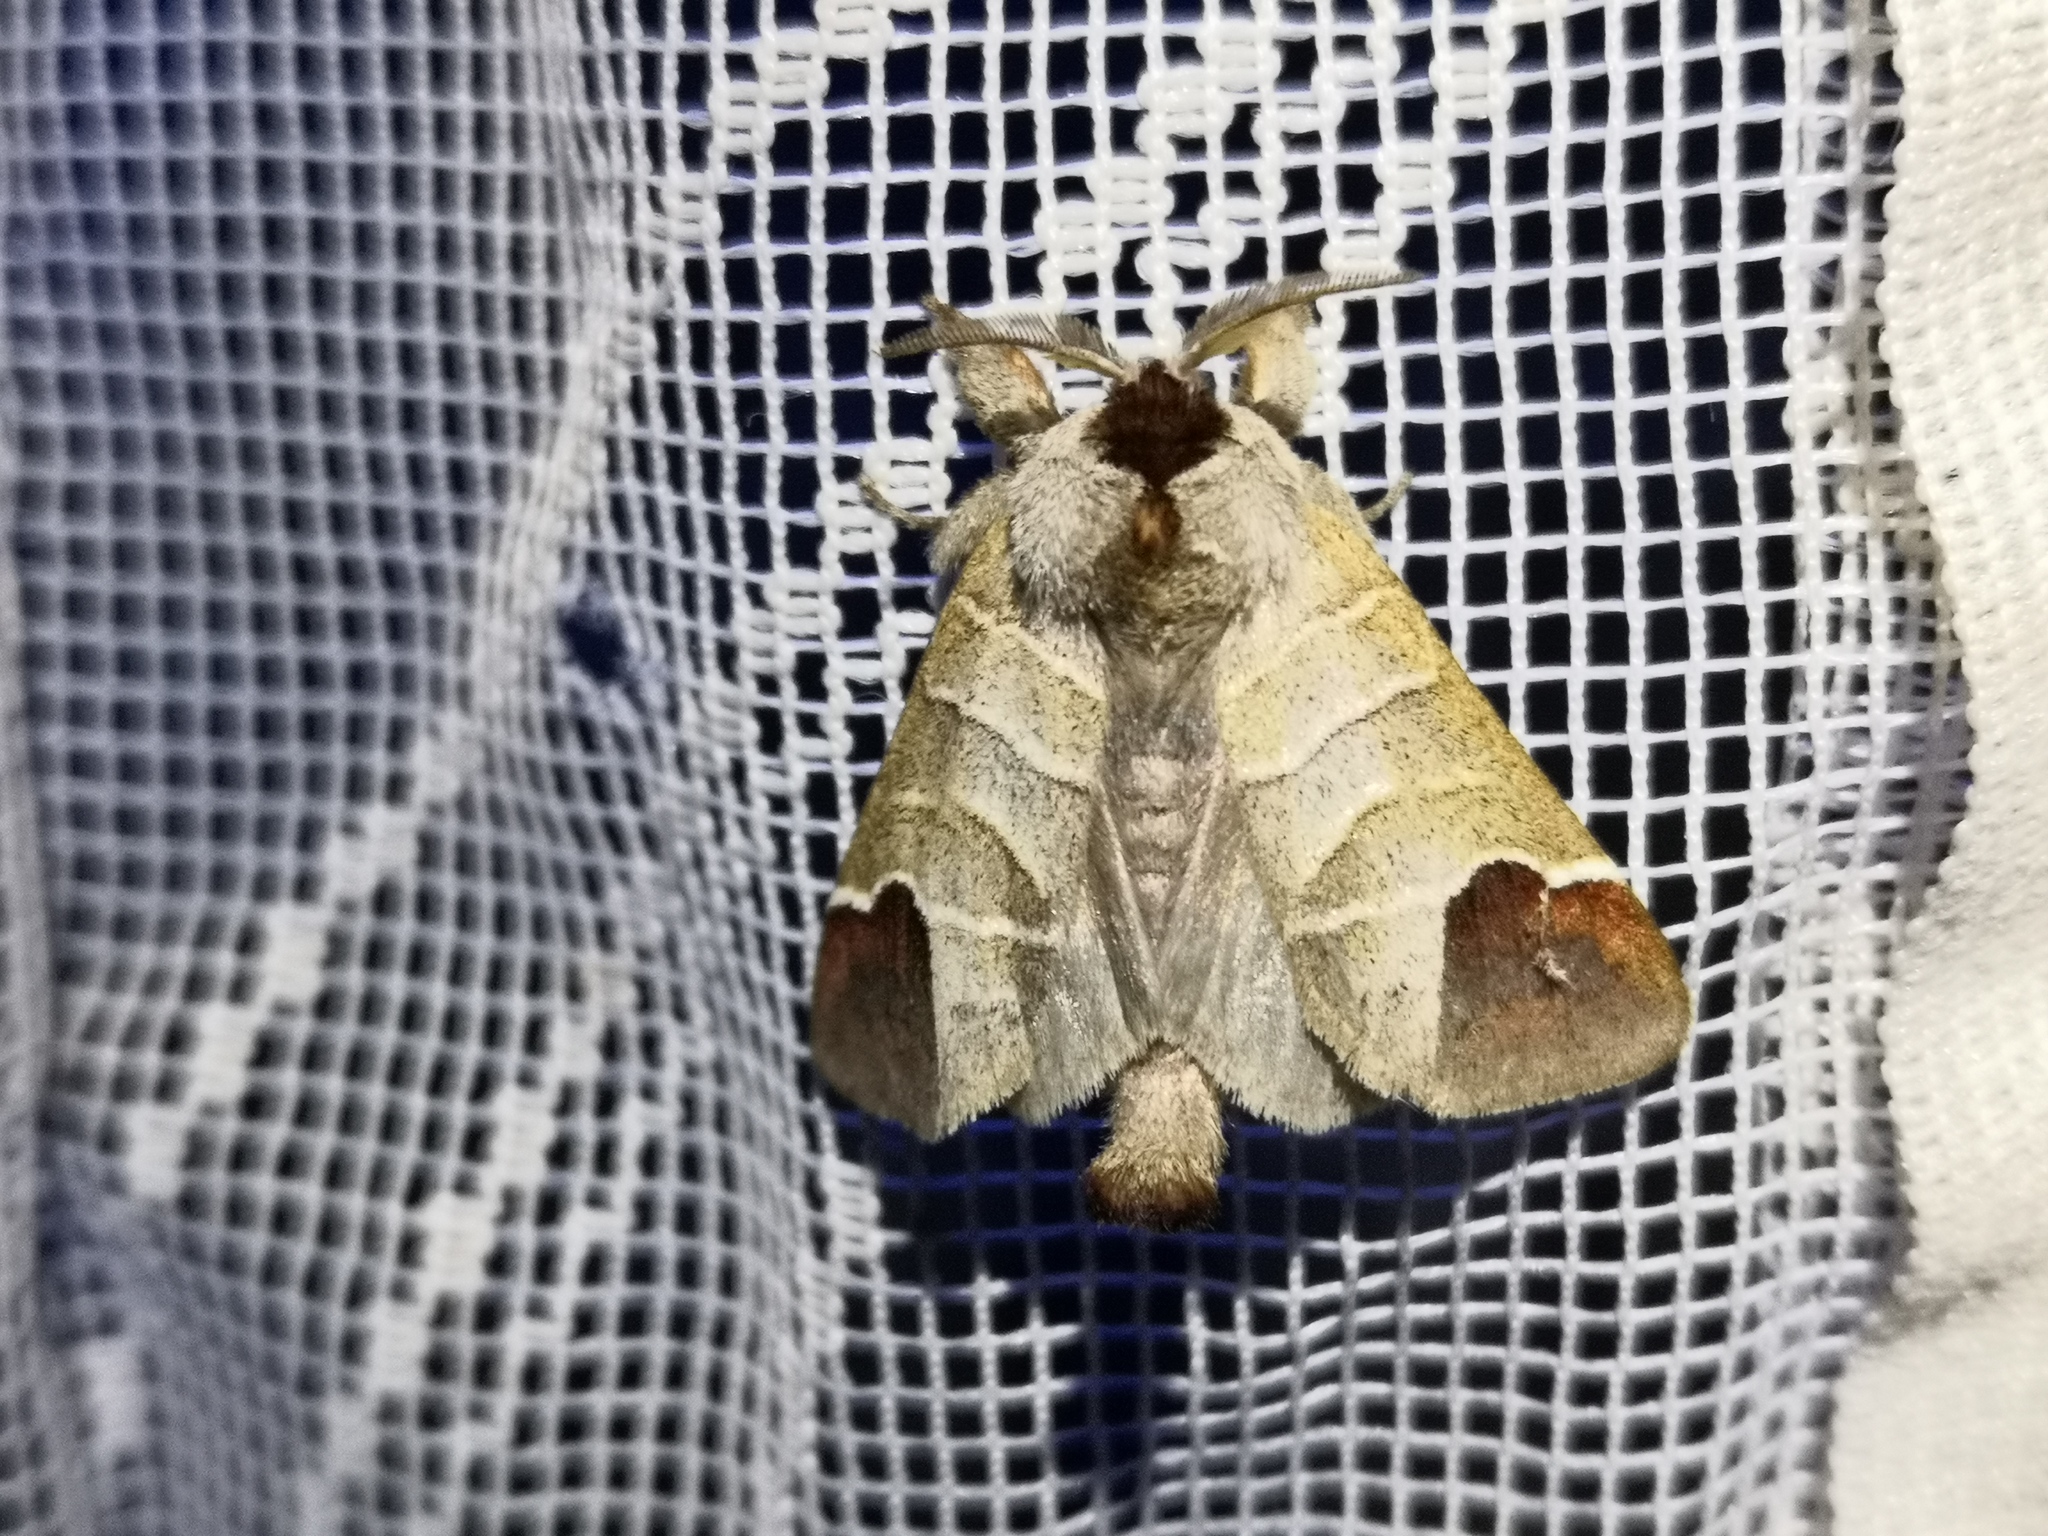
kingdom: Animalia
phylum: Arthropoda
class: Insecta
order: Lepidoptera
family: Notodontidae
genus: Clostera
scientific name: Clostera curtula
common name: Chocolate-tip
